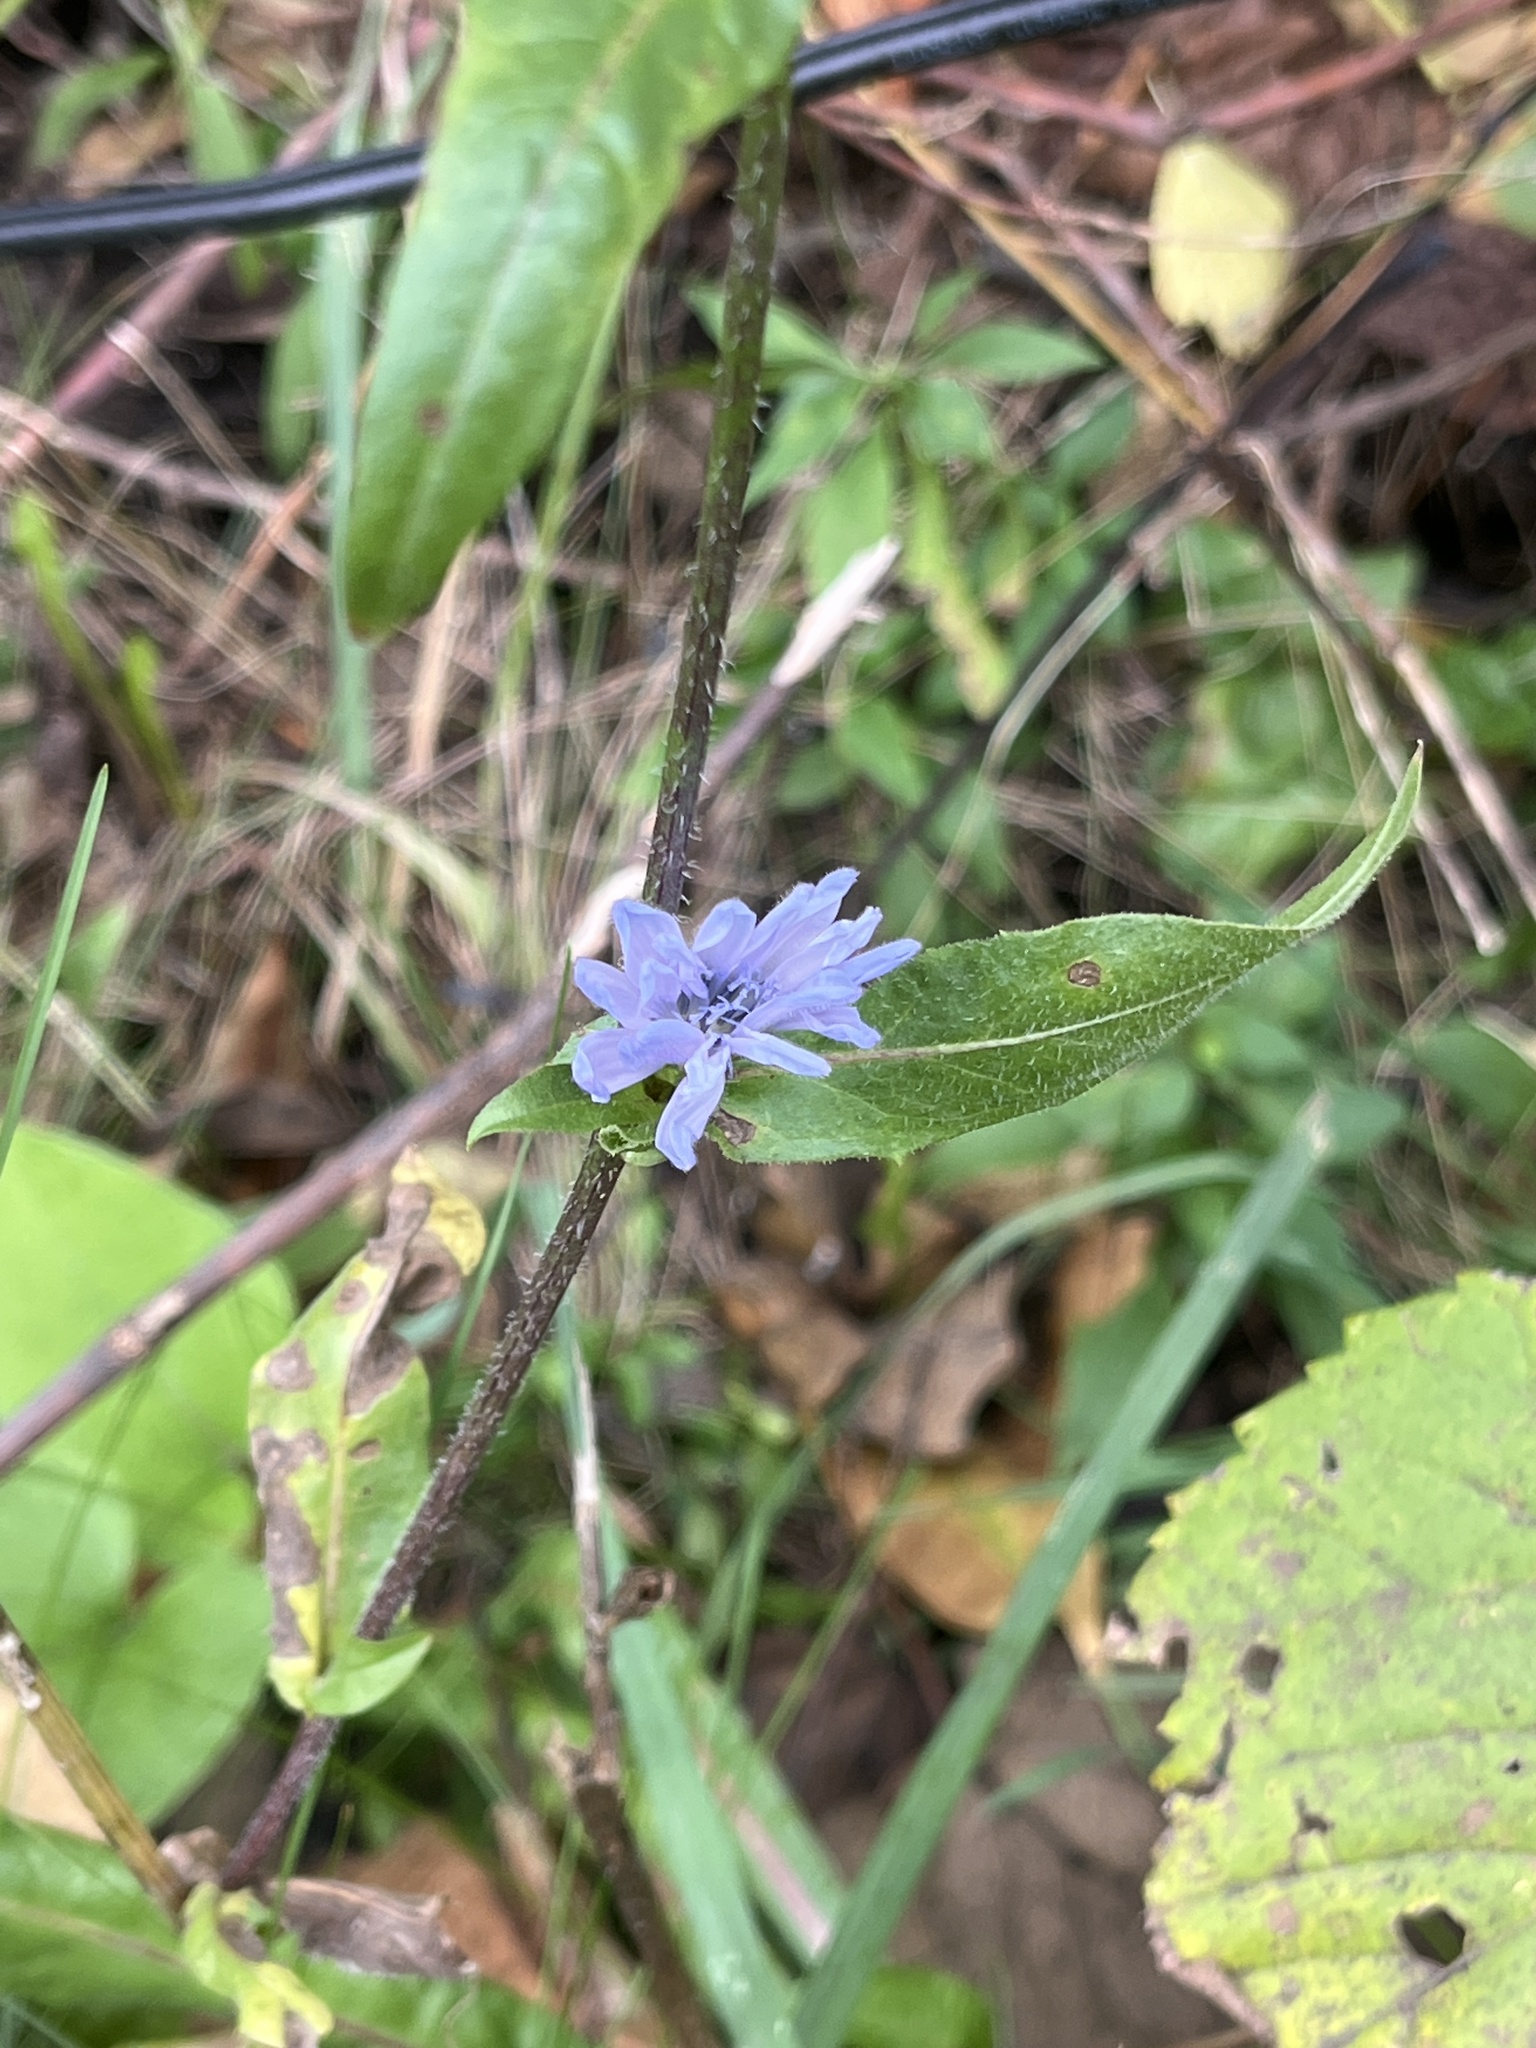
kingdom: Plantae
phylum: Tracheophyta
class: Magnoliopsida
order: Asterales
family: Asteraceae
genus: Cichorium
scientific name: Cichorium intybus
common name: Chicory
